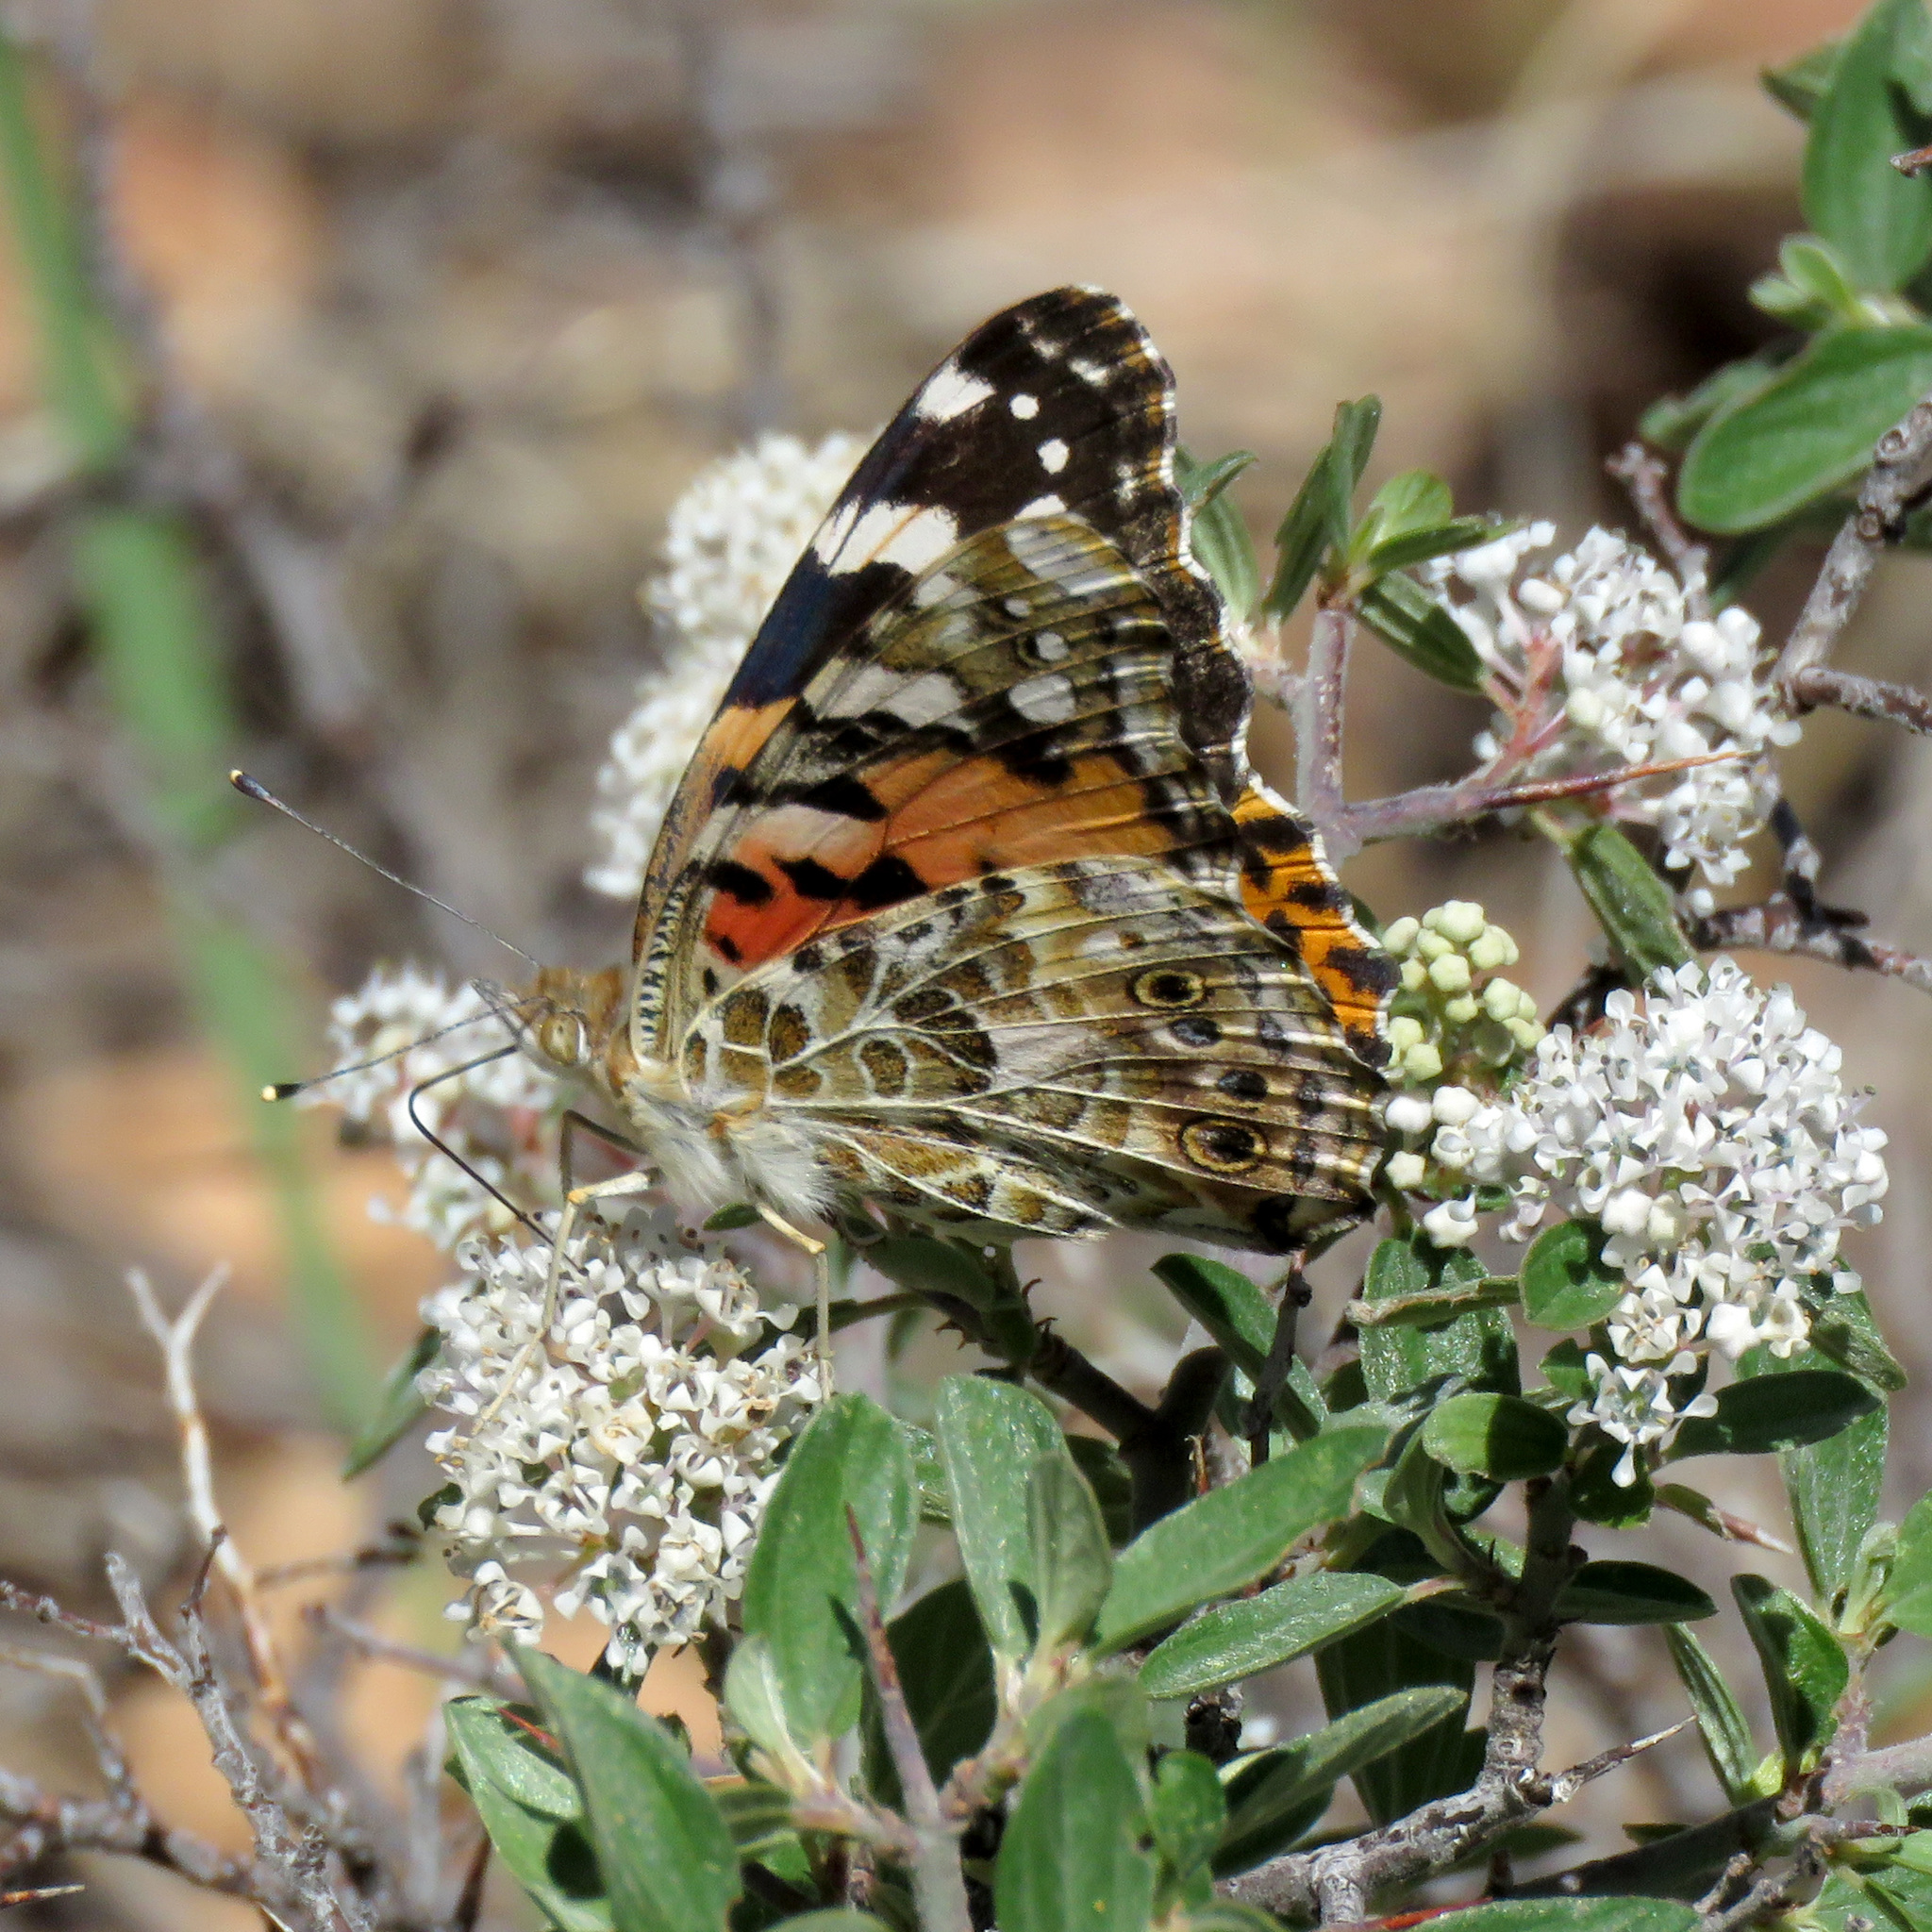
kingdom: Animalia
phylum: Arthropoda
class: Insecta
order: Lepidoptera
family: Nymphalidae
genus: Vanessa
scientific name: Vanessa cardui
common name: Painted lady
